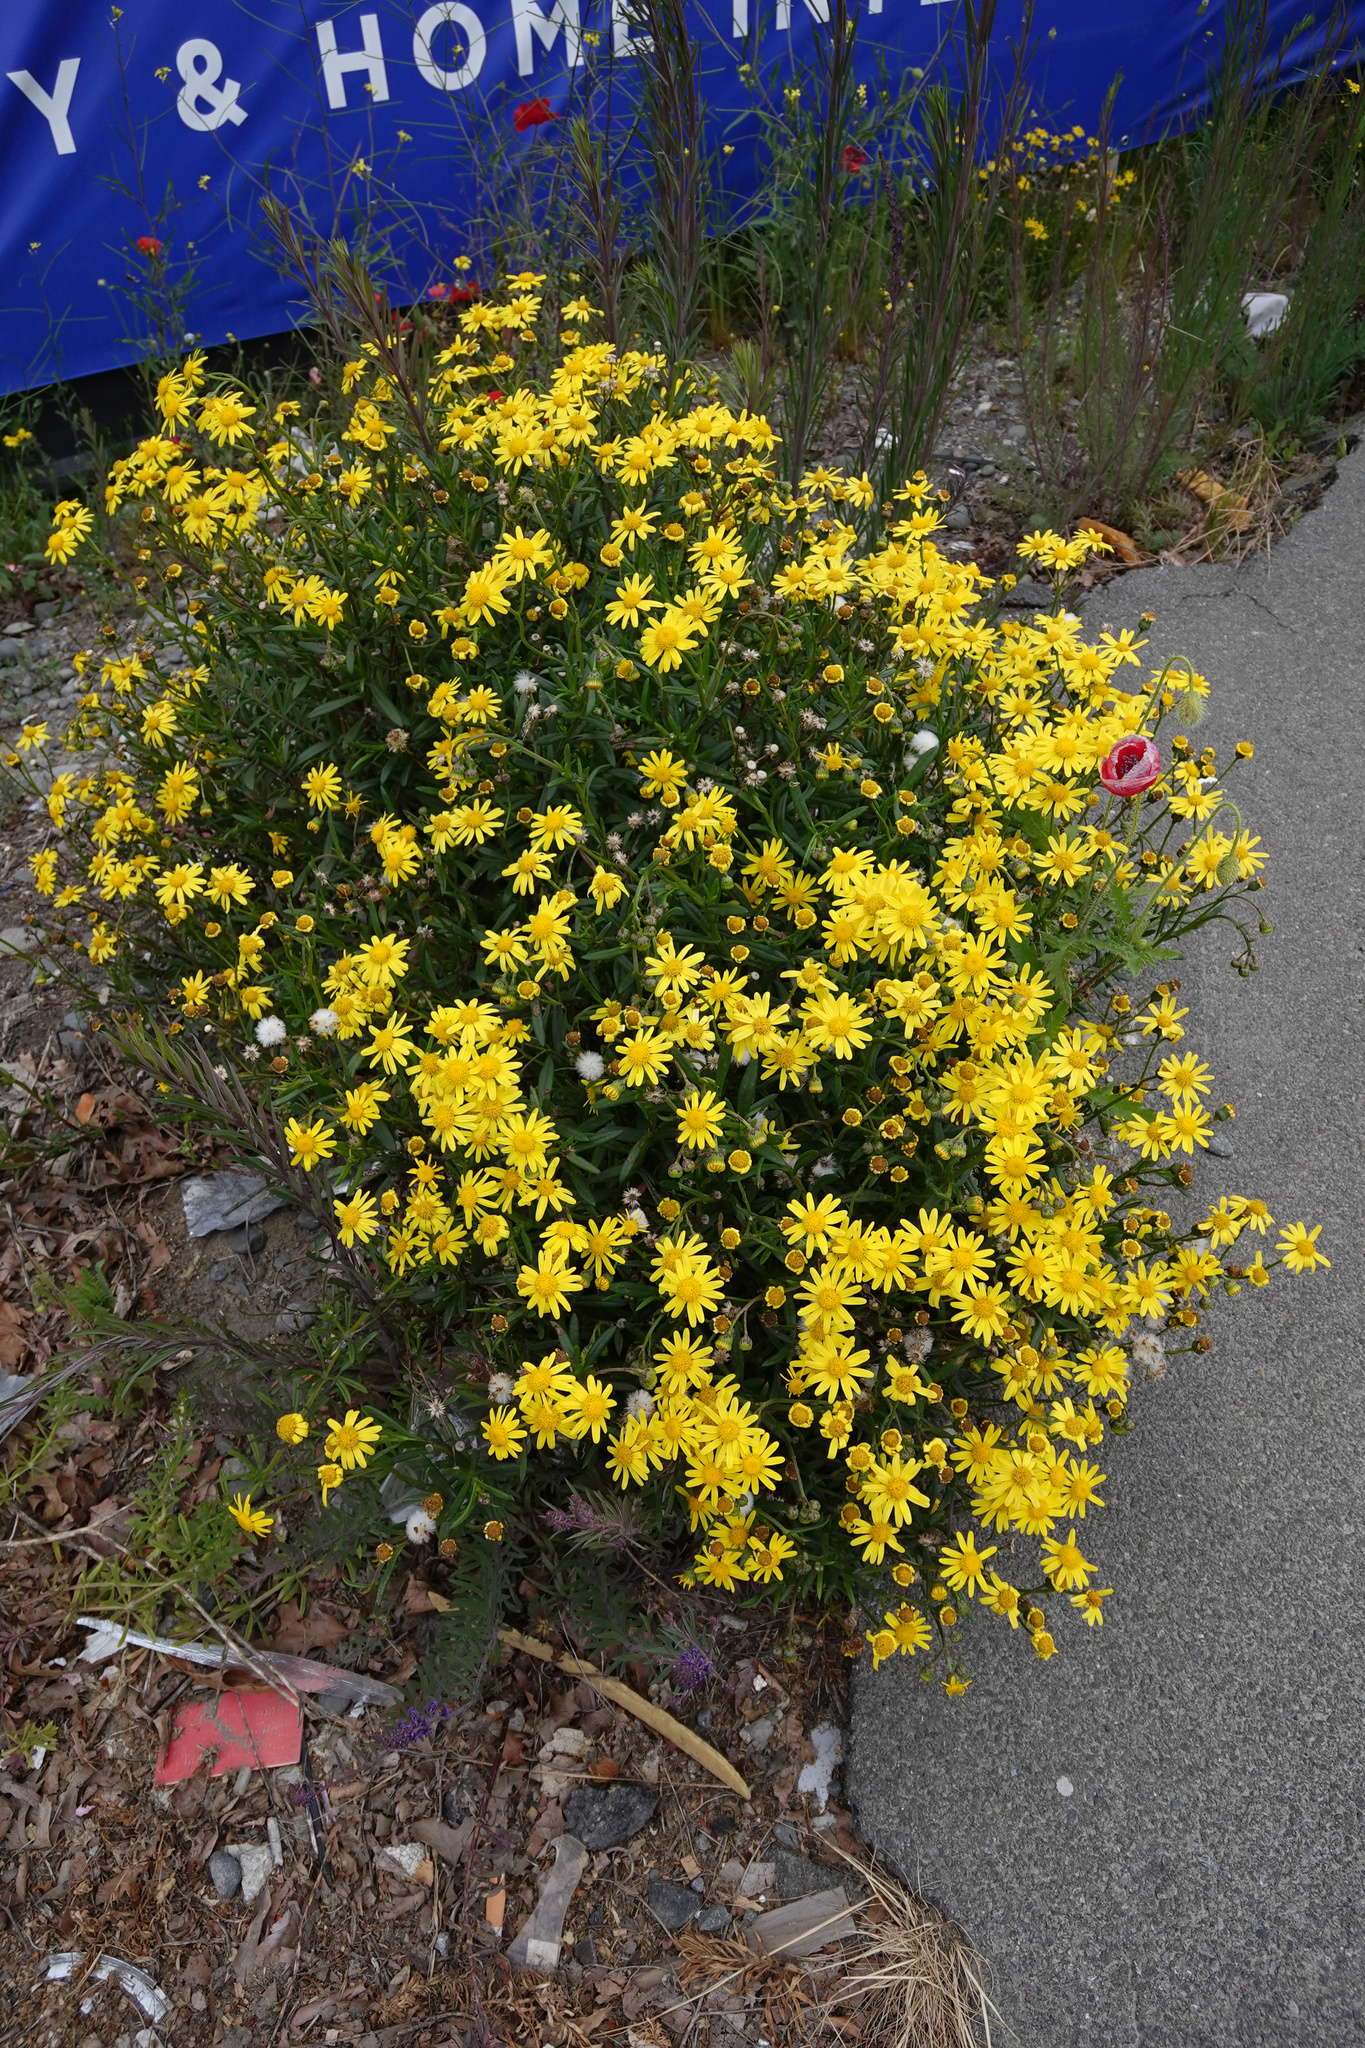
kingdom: Plantae
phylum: Tracheophyta
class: Magnoliopsida
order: Asterales
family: Asteraceae
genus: Senecio
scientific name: Senecio skirrhodon
